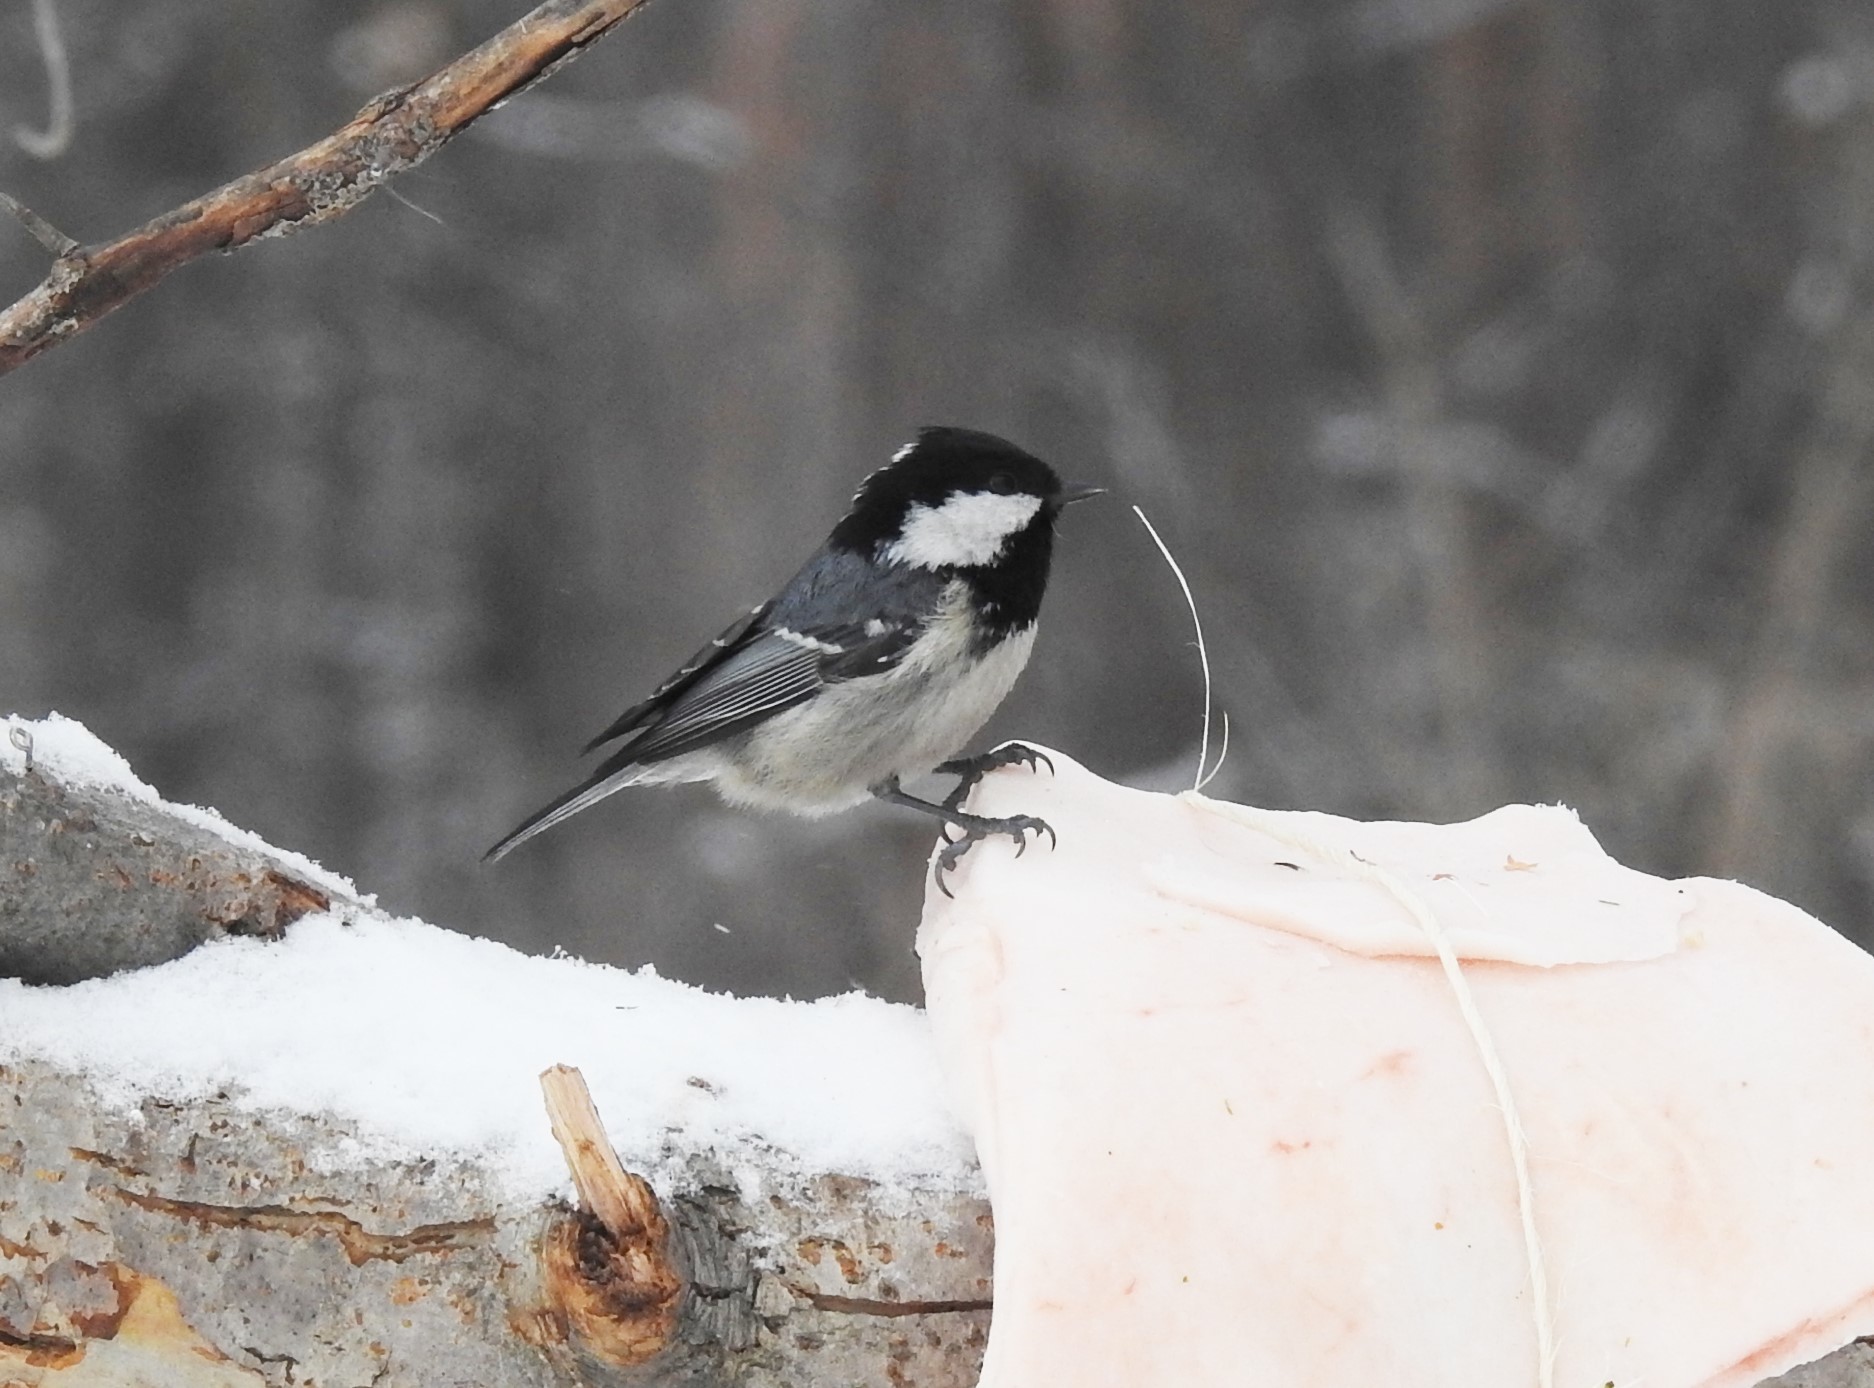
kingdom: Animalia
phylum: Chordata
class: Aves
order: Passeriformes
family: Paridae
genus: Periparus
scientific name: Periparus ater
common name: Coal tit
